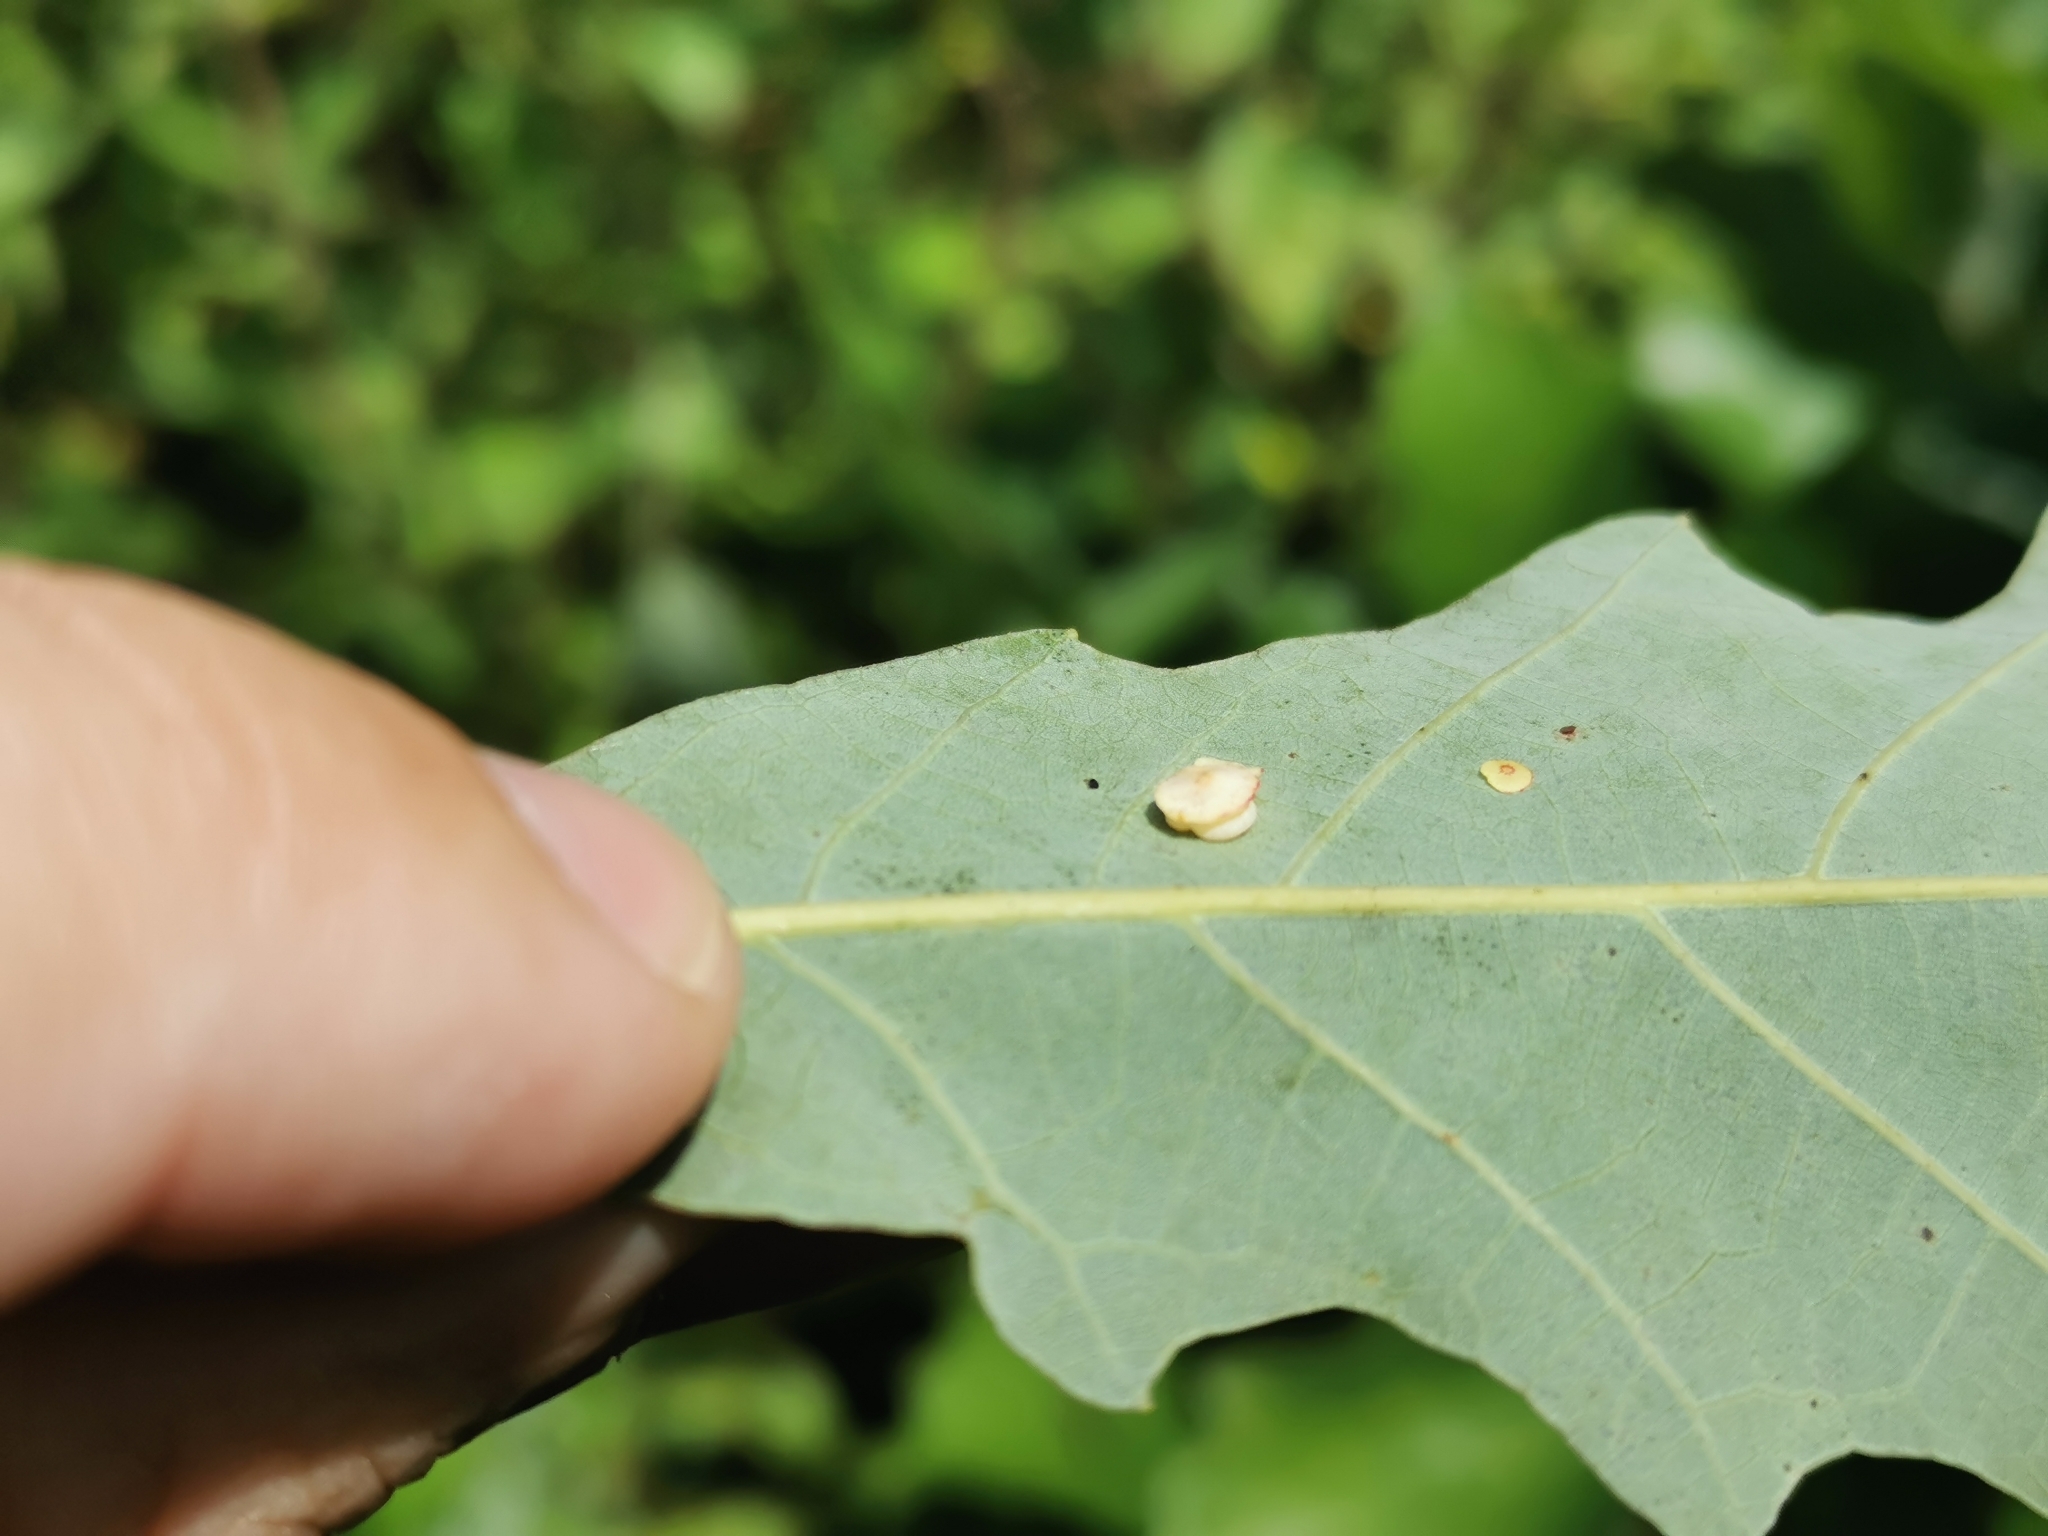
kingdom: Animalia
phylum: Arthropoda
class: Insecta
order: Hymenoptera
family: Cynipidae
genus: Phylloteras
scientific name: Phylloteras poculum
